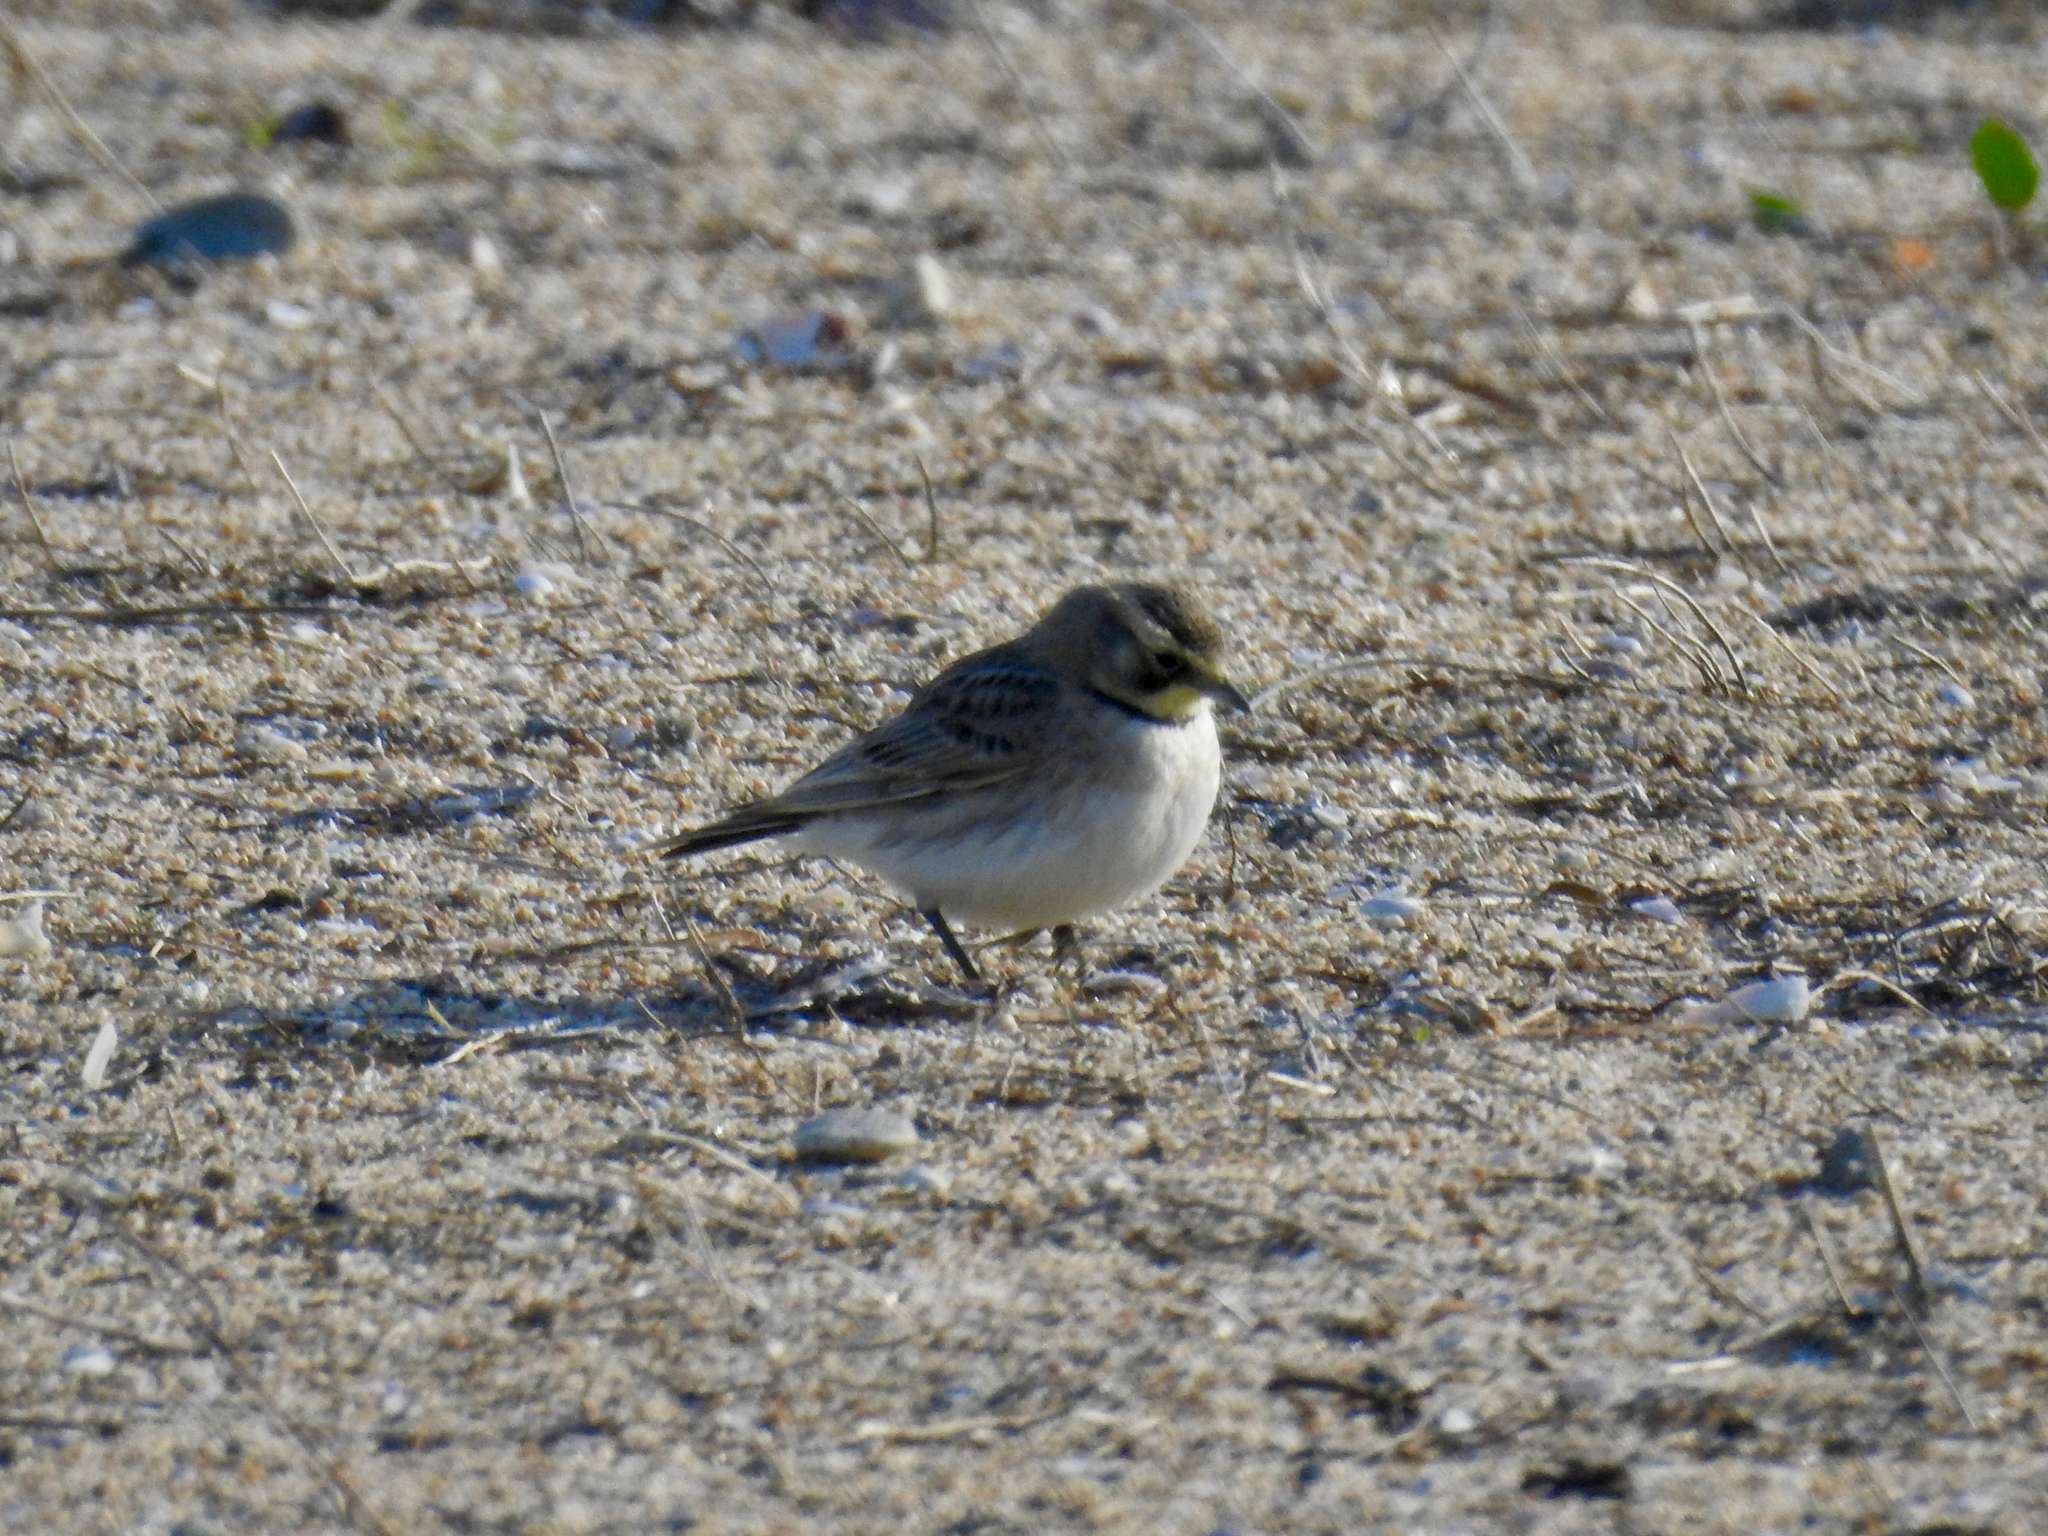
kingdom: Animalia
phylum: Chordata
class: Aves
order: Passeriformes
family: Alaudidae
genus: Eremophila
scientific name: Eremophila alpestris
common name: Horned lark
